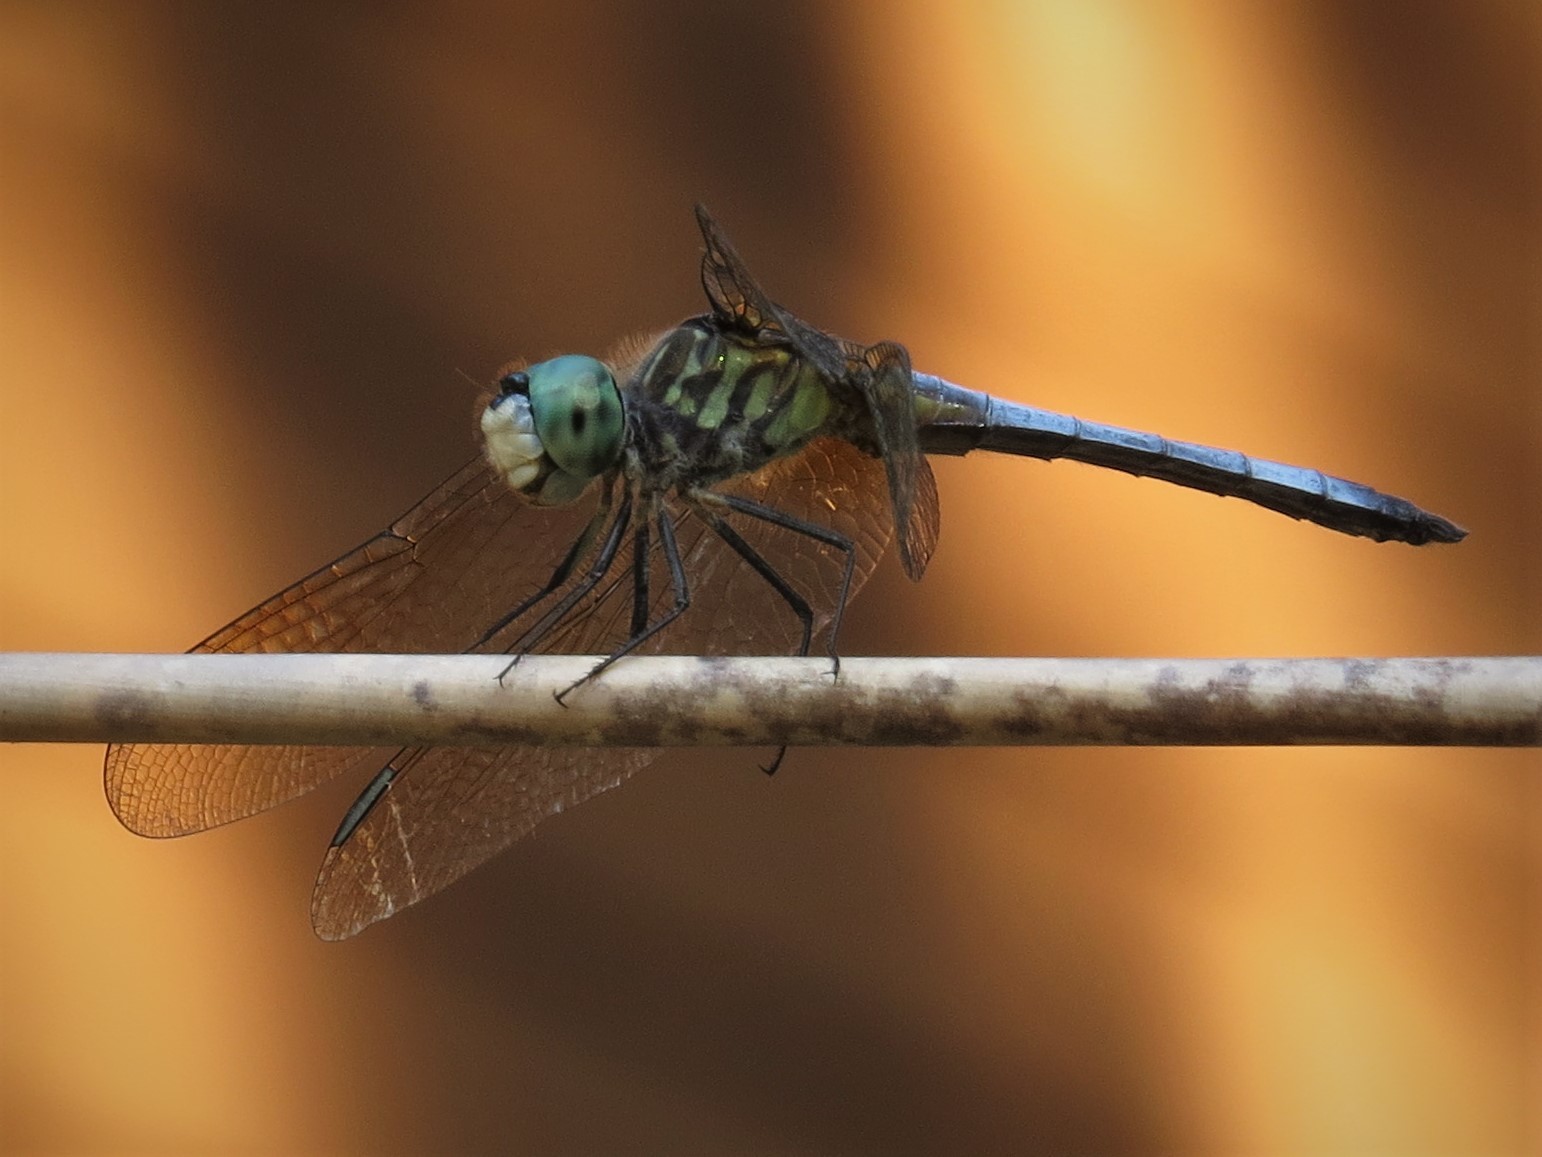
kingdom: Animalia
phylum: Arthropoda
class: Insecta
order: Odonata
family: Libellulidae
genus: Pachydiplax
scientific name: Pachydiplax longipennis
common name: Blue dasher
